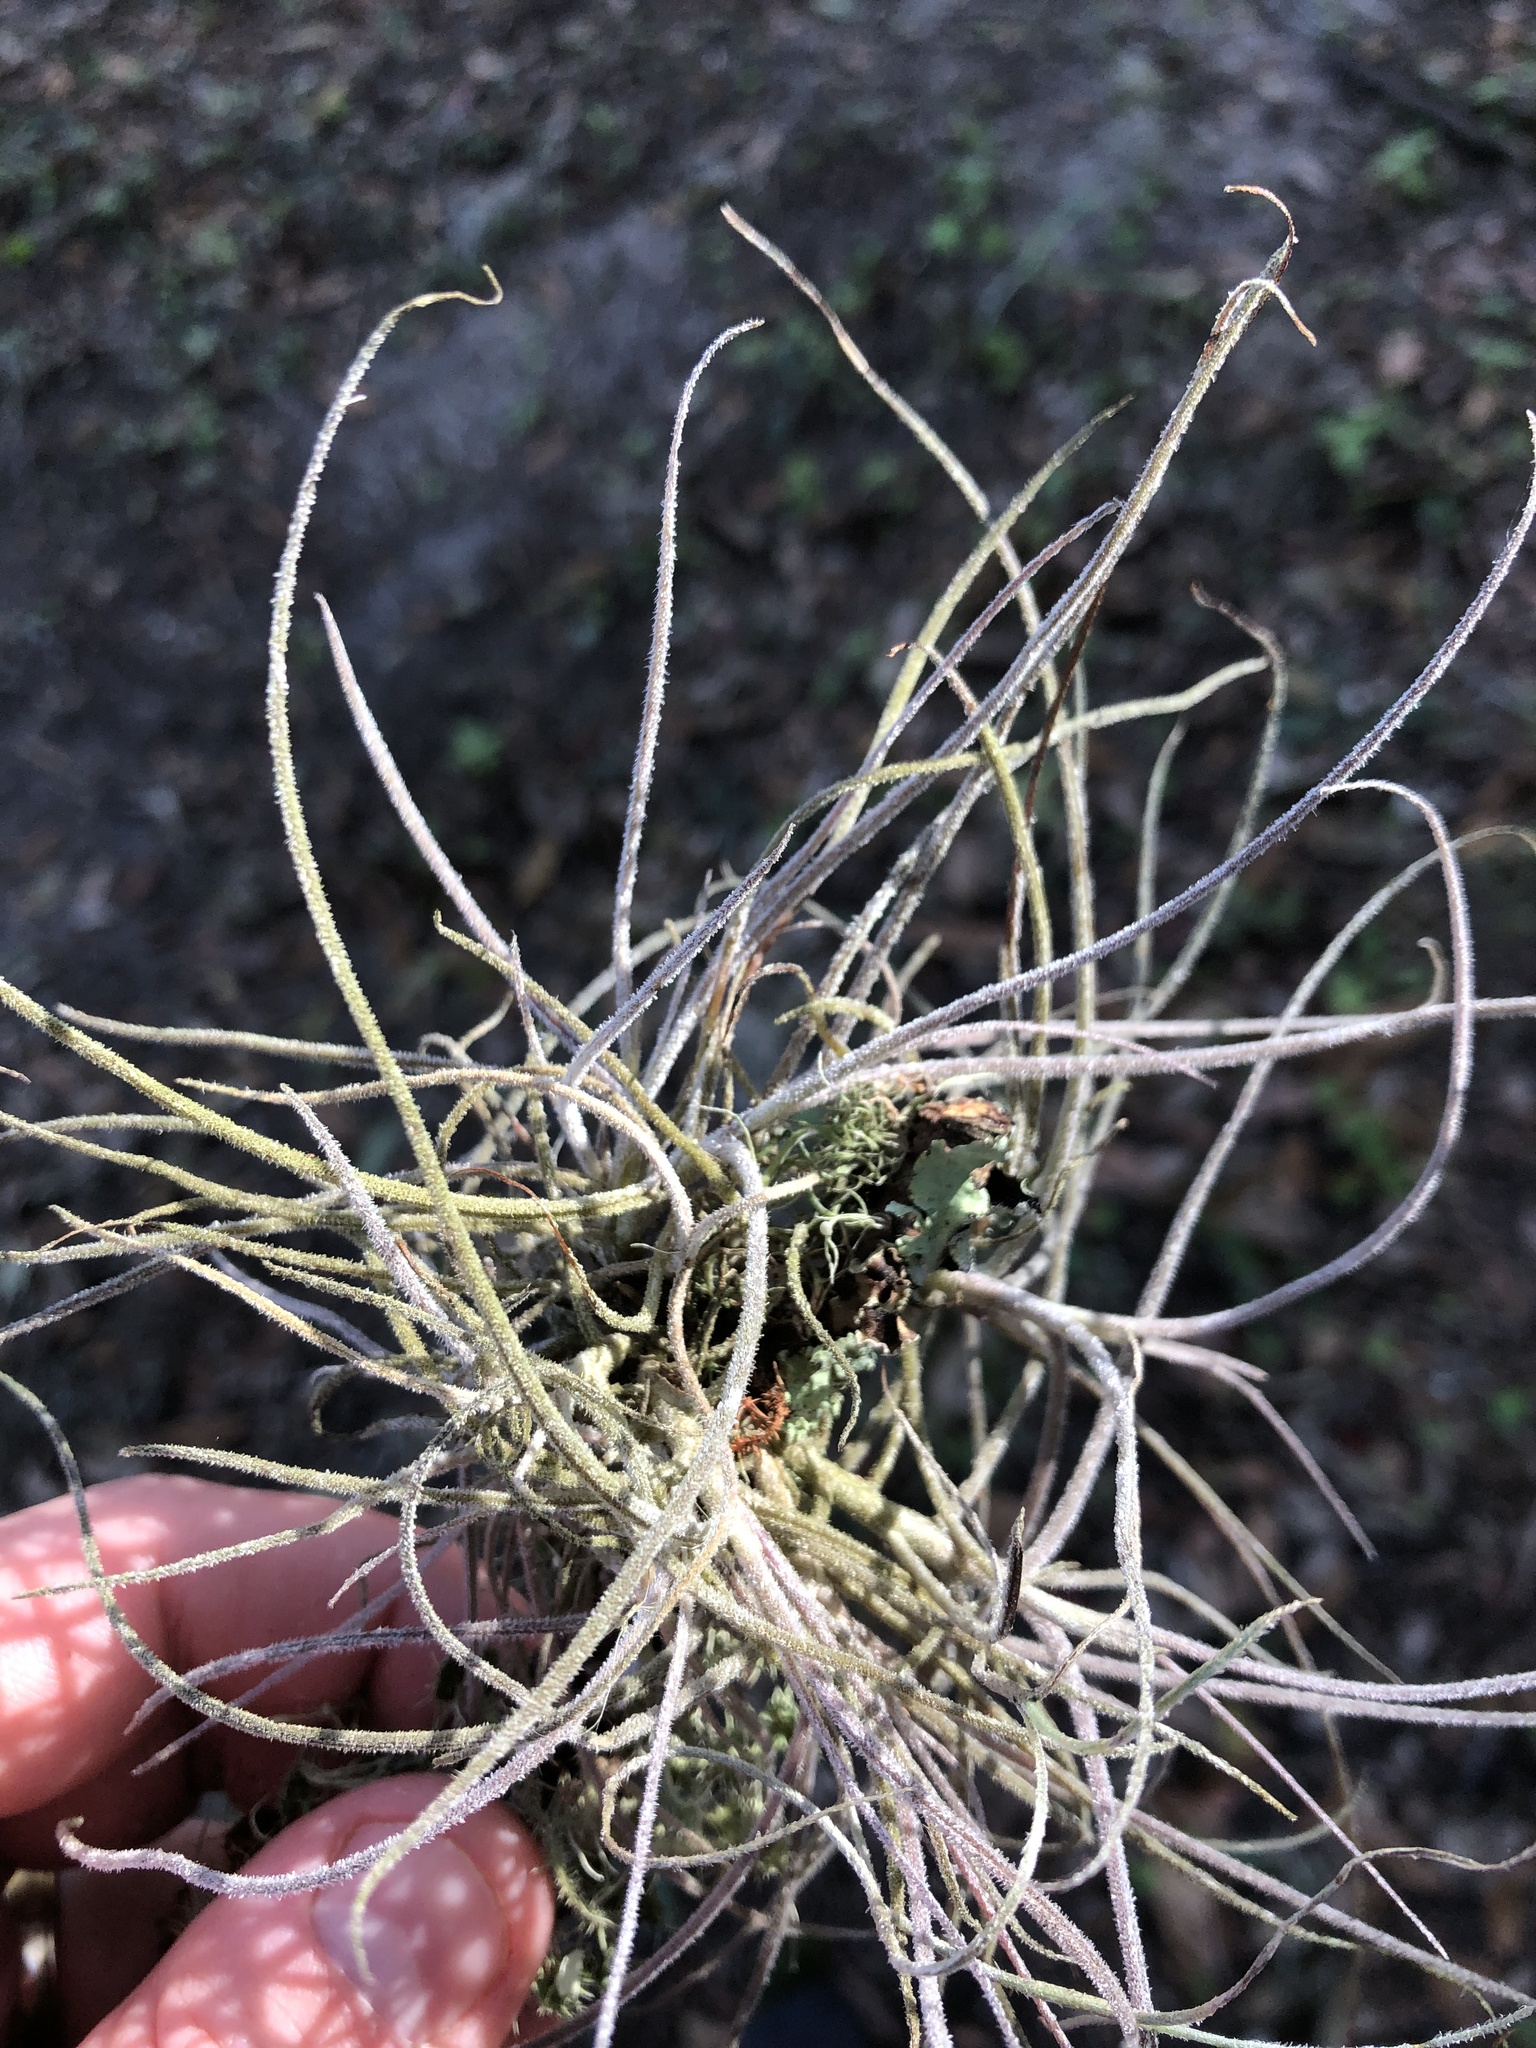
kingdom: Plantae
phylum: Tracheophyta
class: Liliopsida
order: Poales
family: Bromeliaceae
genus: Tillandsia
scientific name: Tillandsia recurvata
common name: Small ballmoss
